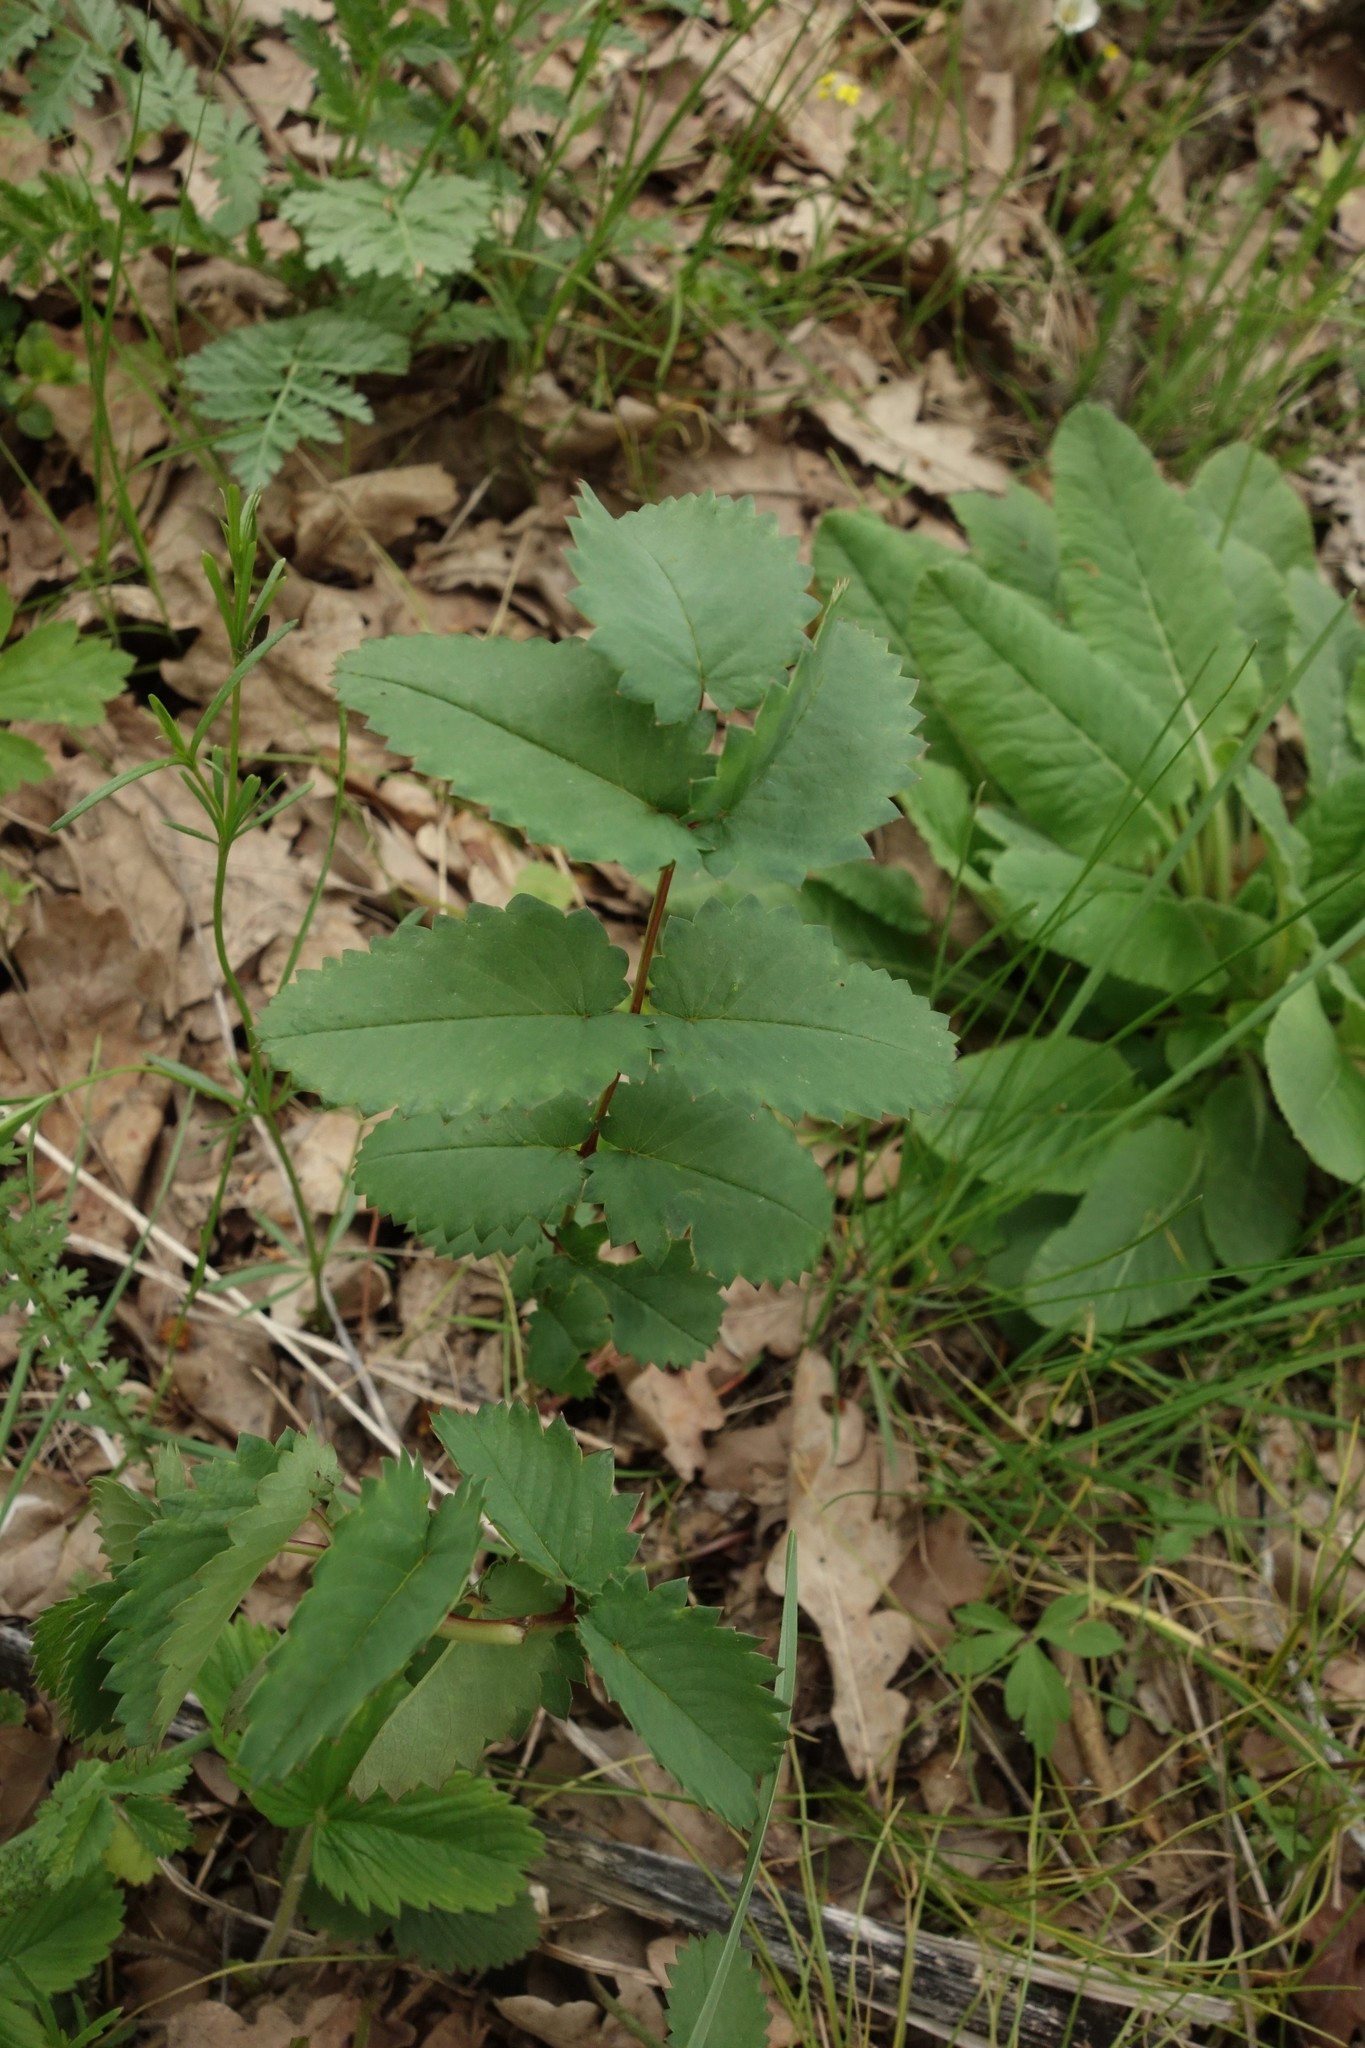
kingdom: Plantae
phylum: Tracheophyta
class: Magnoliopsida
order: Rosales
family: Rosaceae
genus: Sanguisorba
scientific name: Sanguisorba officinalis
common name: Great burnet
